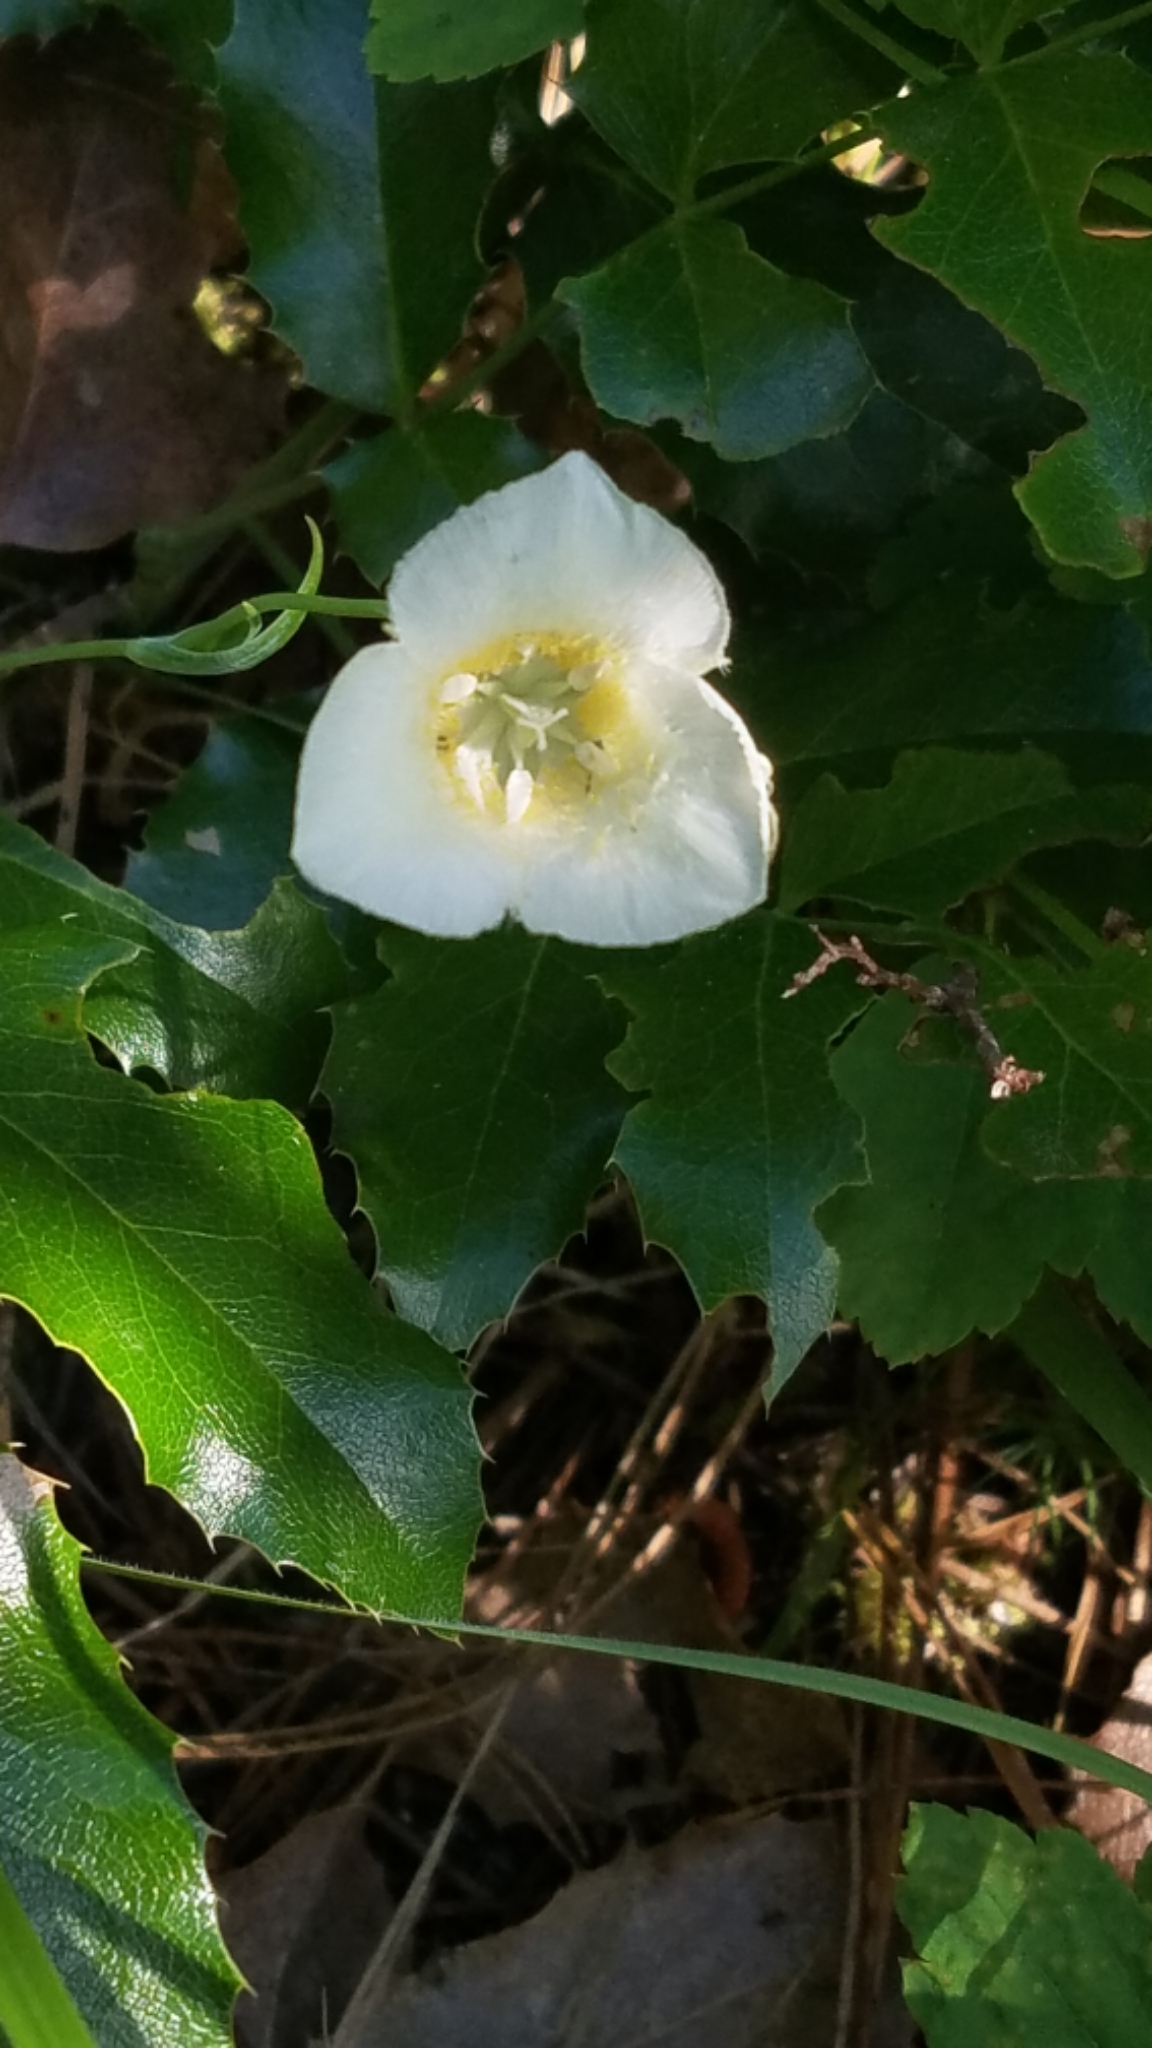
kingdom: Plantae
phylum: Tracheophyta
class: Liliopsida
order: Liliales
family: Liliaceae
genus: Calochortus
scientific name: Calochortus apiculatus
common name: Baker's mariposa lily
